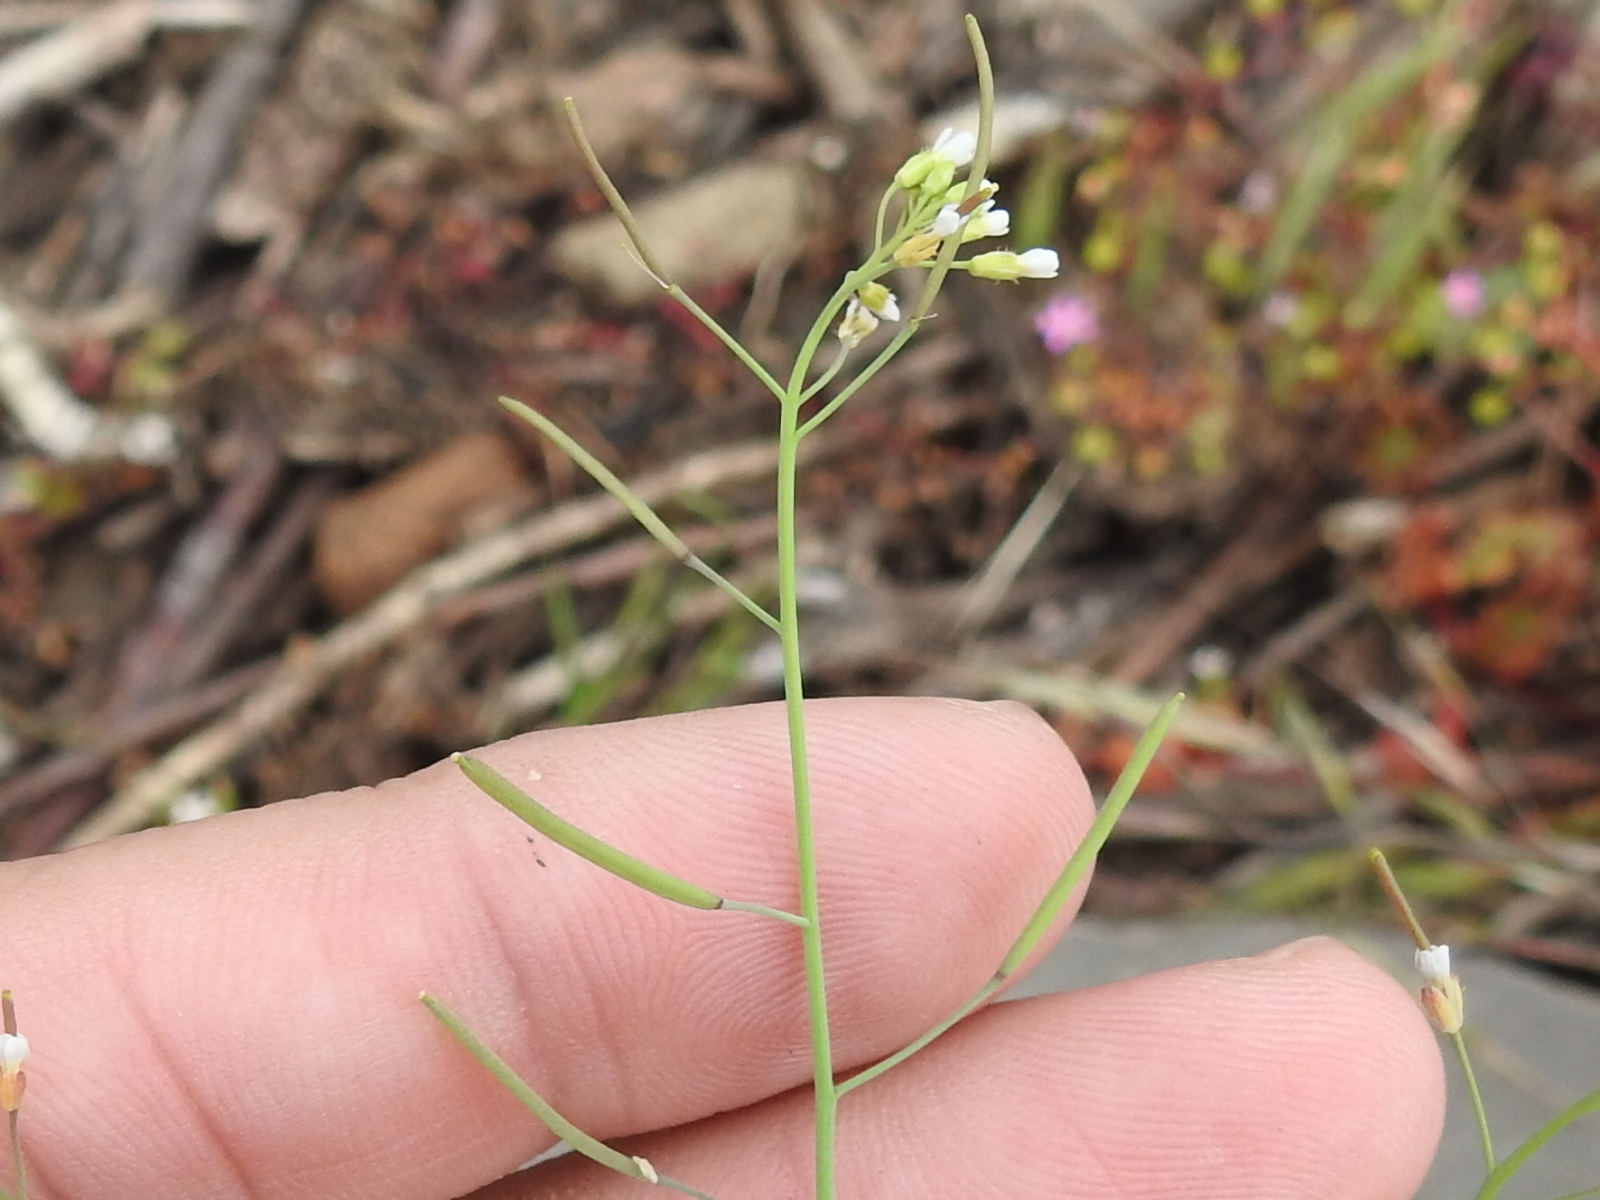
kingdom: Plantae
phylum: Tracheophyta
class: Magnoliopsida
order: Brassicales
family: Brassicaceae
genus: Arabidopsis
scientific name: Arabidopsis thaliana
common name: Thale cress
